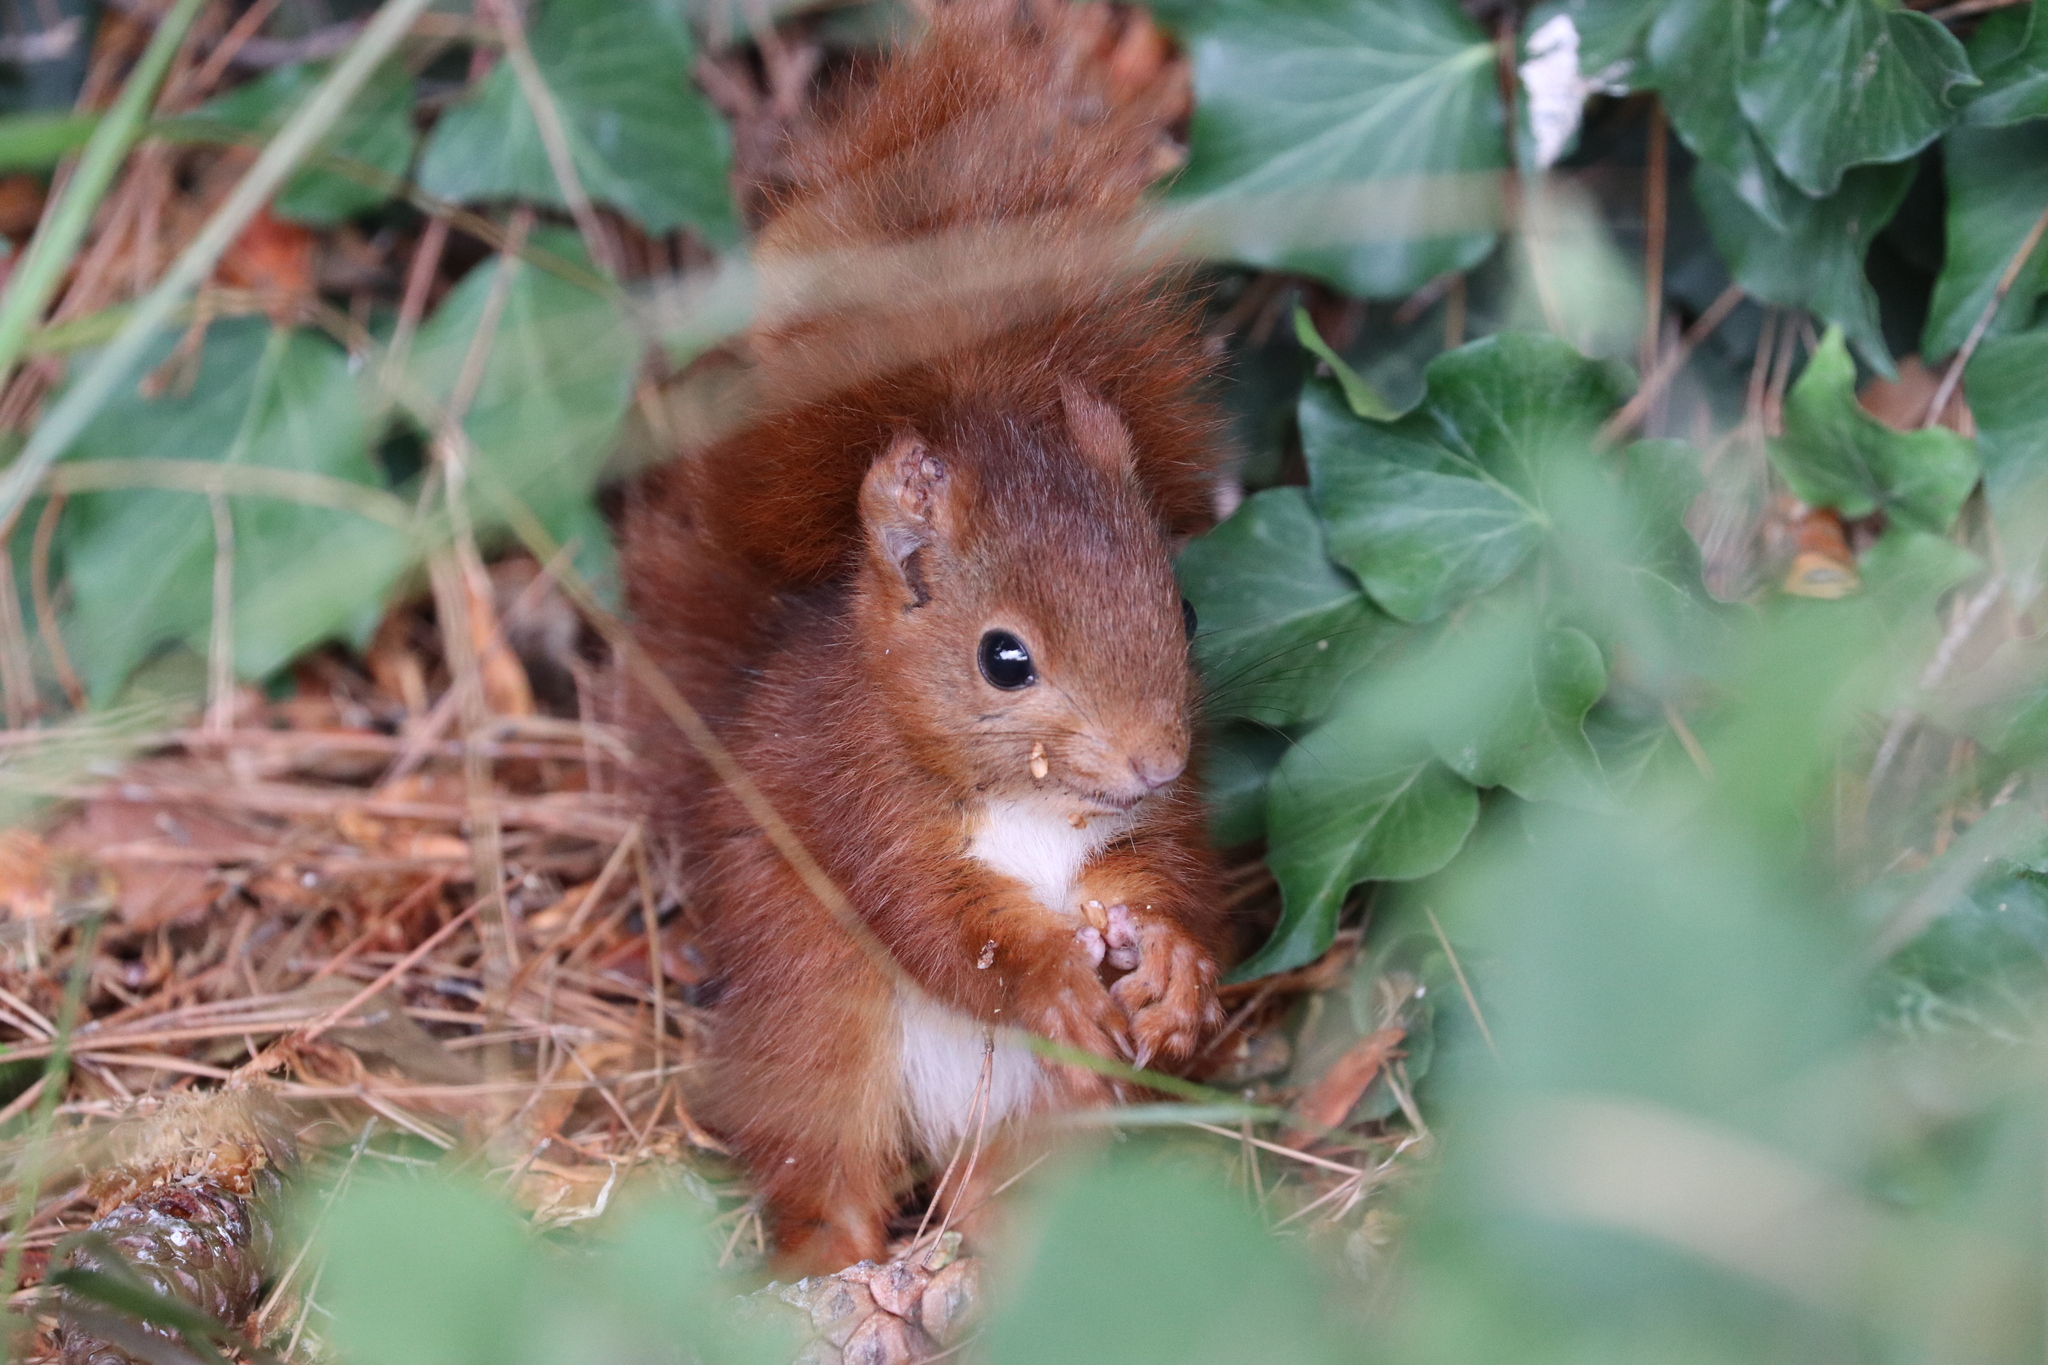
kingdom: Animalia
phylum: Chordata
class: Mammalia
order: Rodentia
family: Sciuridae
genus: Sciurus
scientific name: Sciurus vulgaris
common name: Eurasian red squirrel
